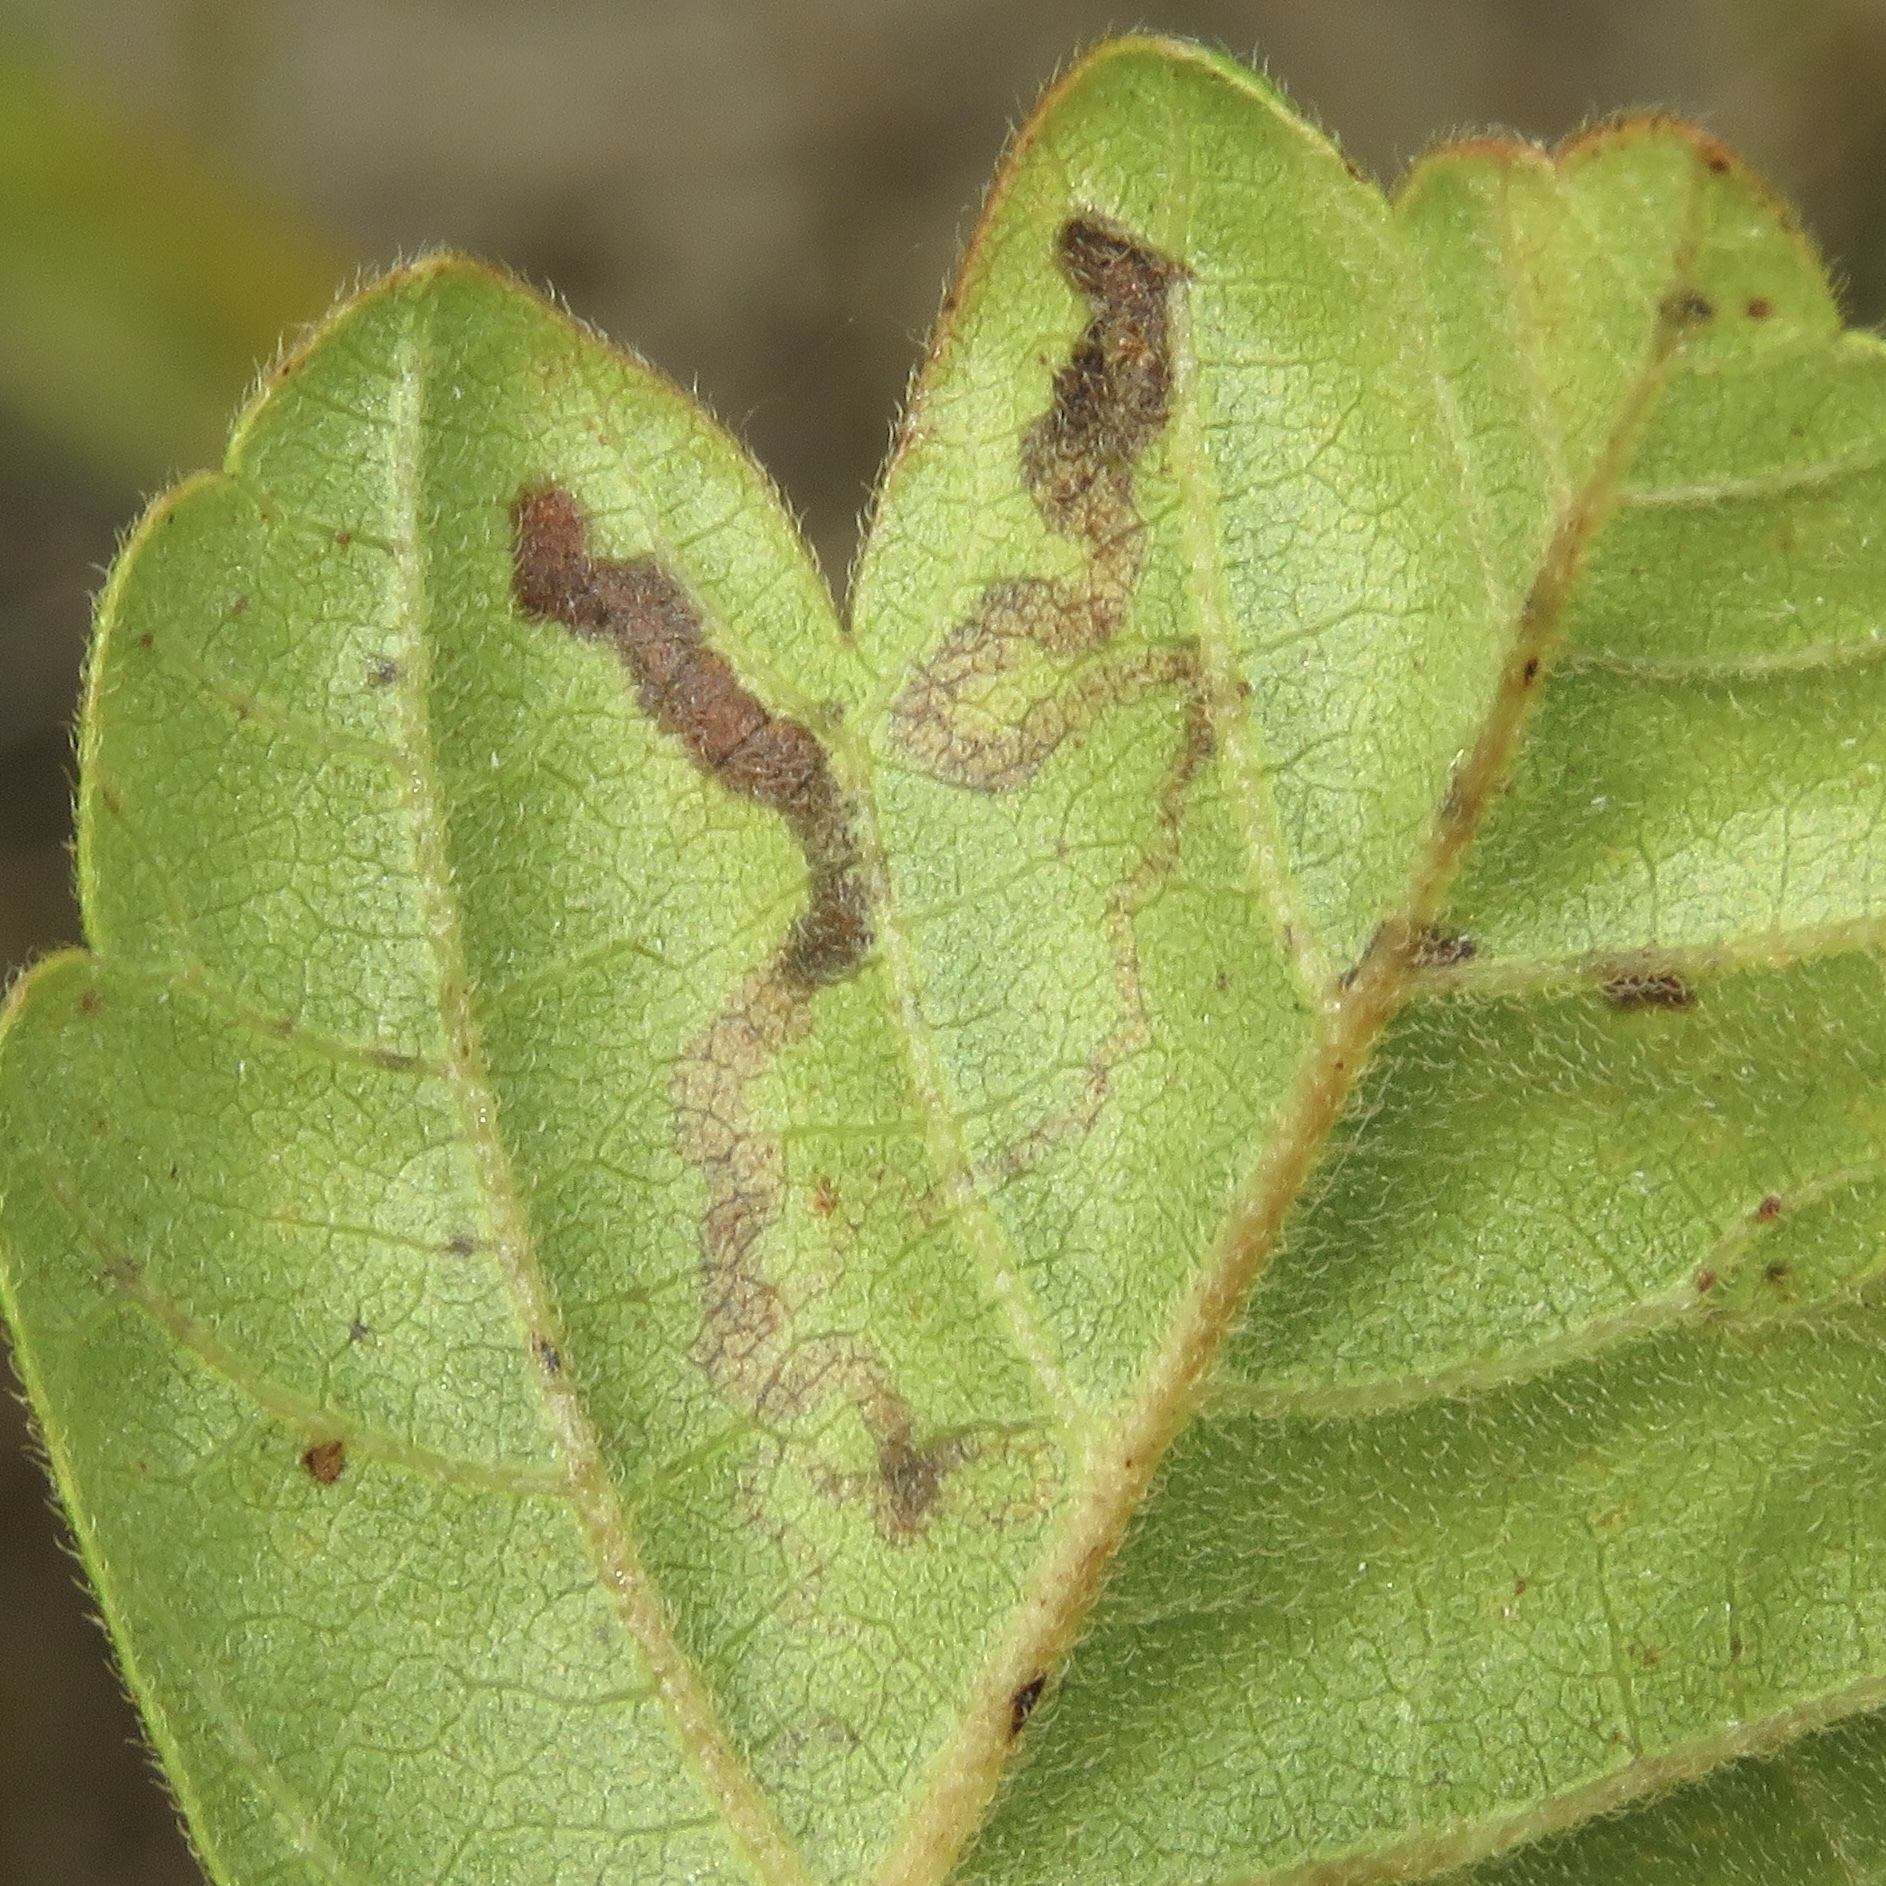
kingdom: Animalia
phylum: Arthropoda
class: Insecta
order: Lepidoptera
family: Nepticulidae
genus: Stigmella
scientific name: Stigmella intermedia
